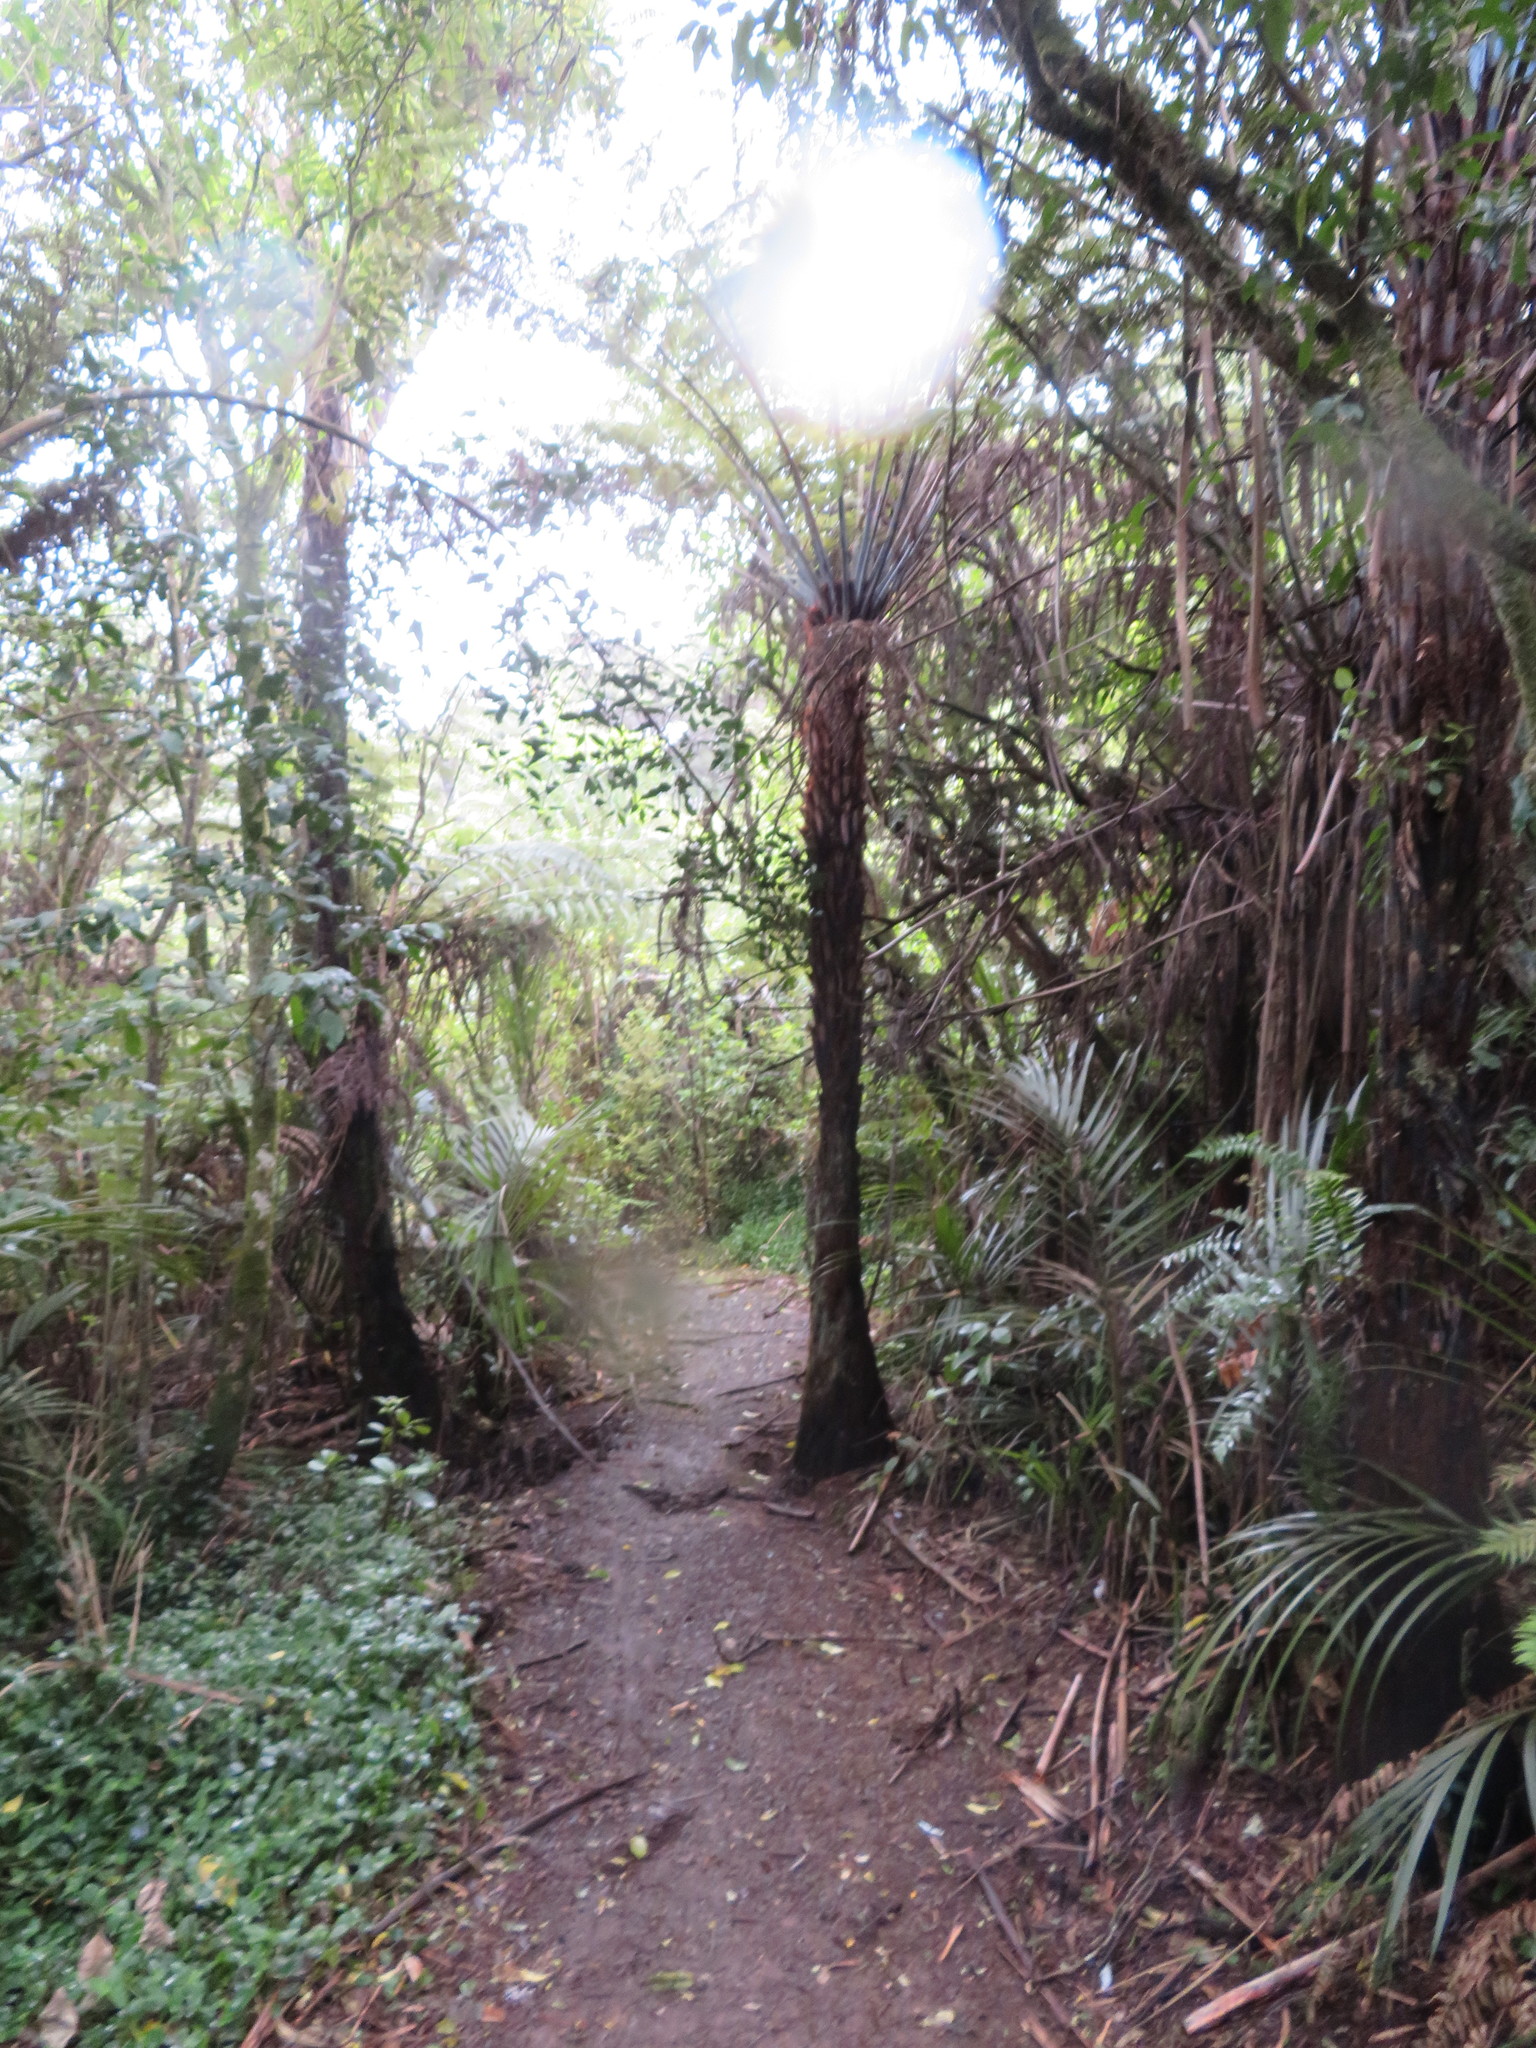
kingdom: Plantae
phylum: Tracheophyta
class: Polypodiopsida
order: Cyatheales
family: Cyatheaceae
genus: Alsophila
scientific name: Alsophila dealbata
